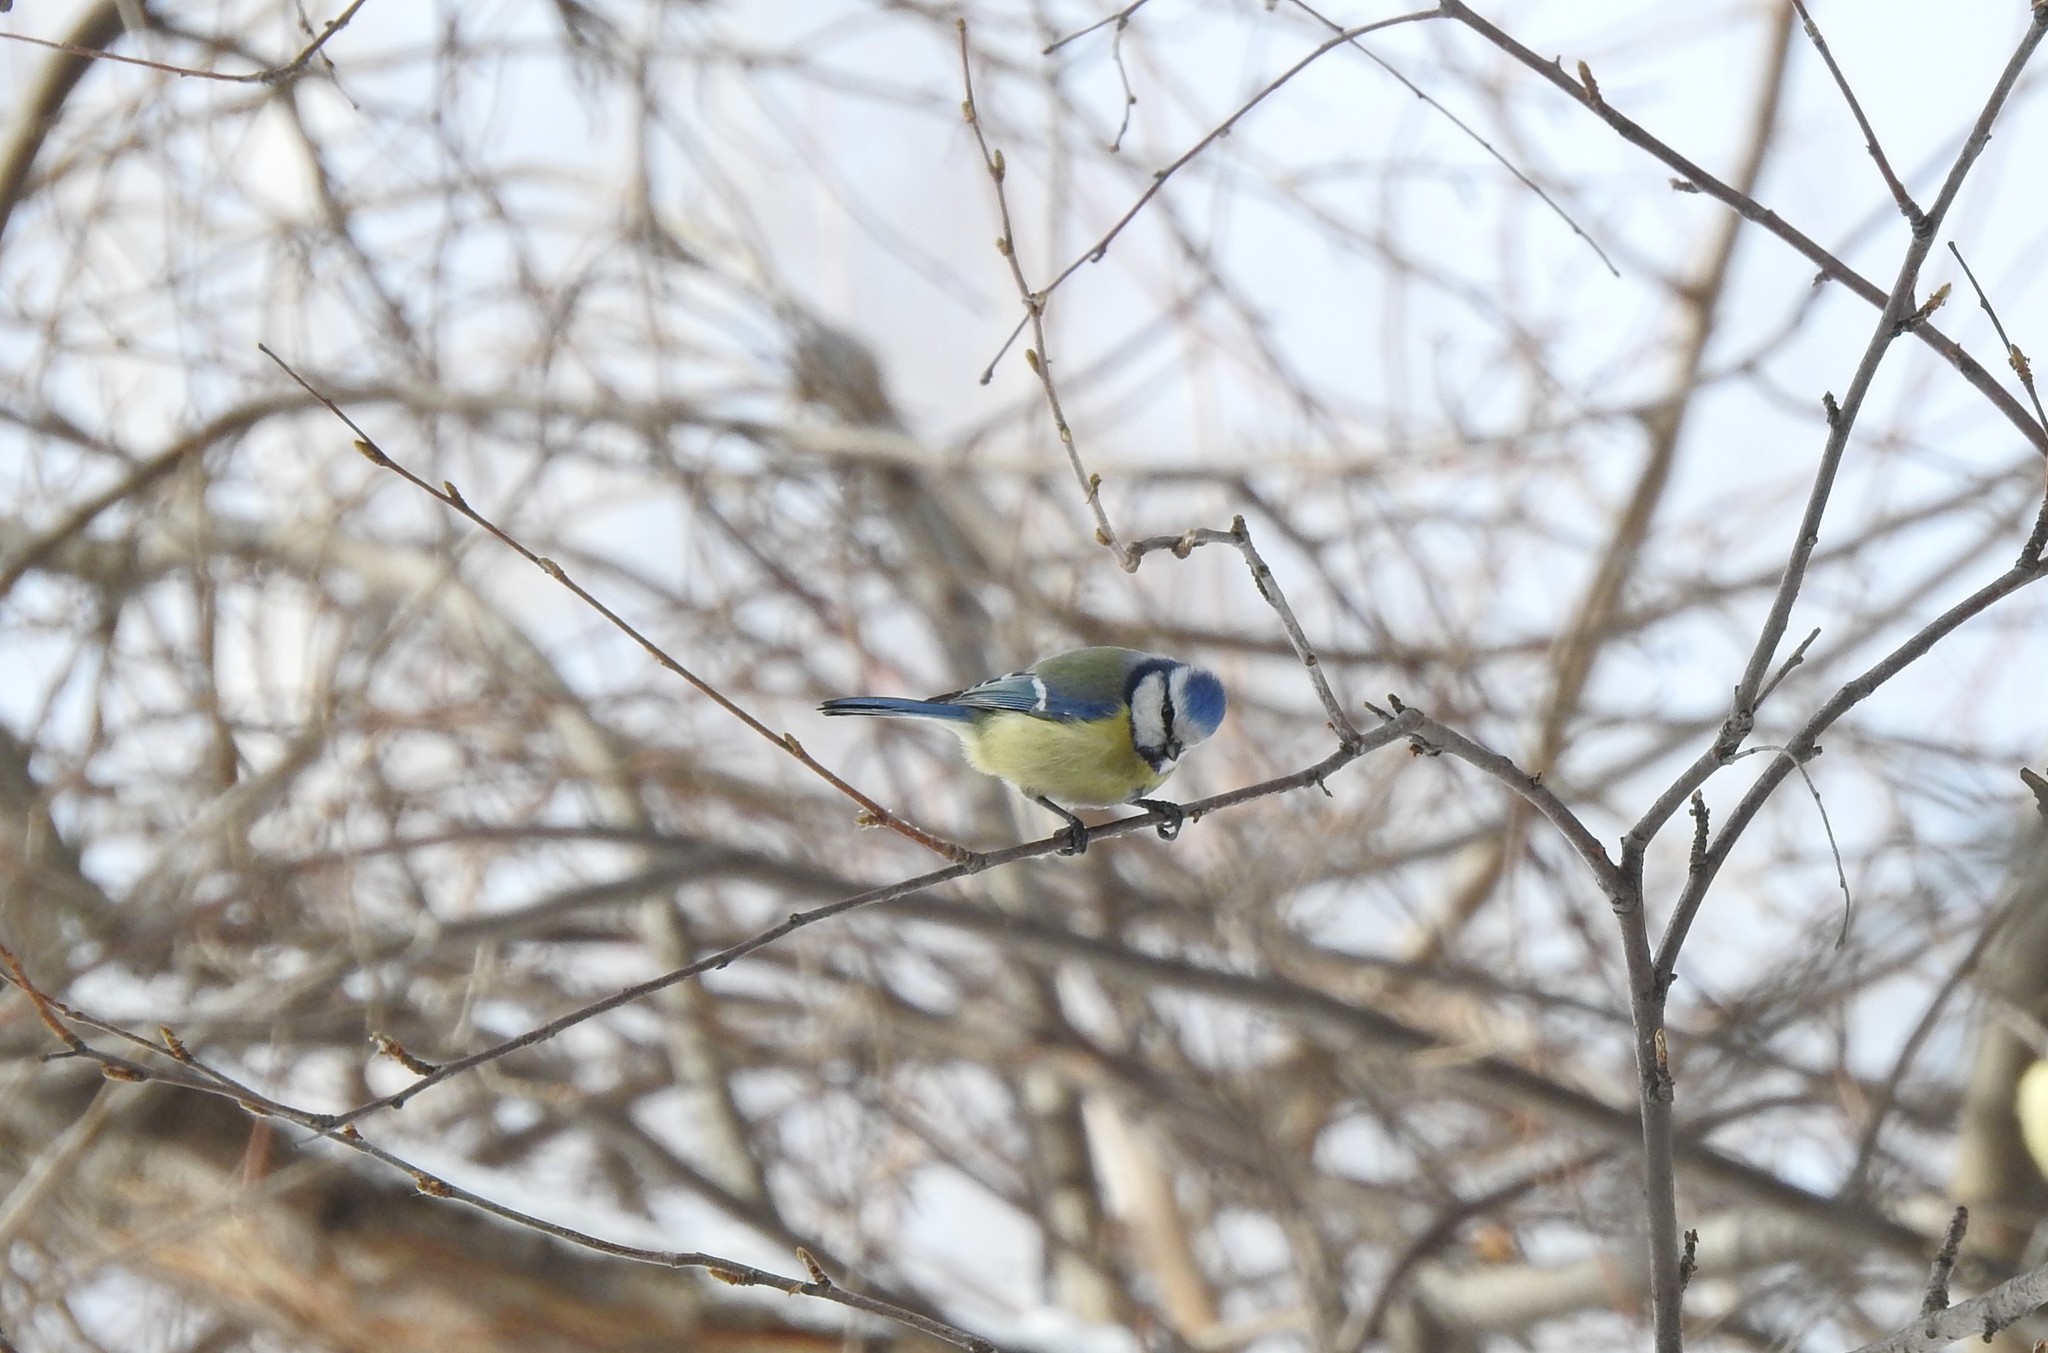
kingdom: Animalia
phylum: Chordata
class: Aves
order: Passeriformes
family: Paridae
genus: Cyanistes
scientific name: Cyanistes caeruleus
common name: Eurasian blue tit
